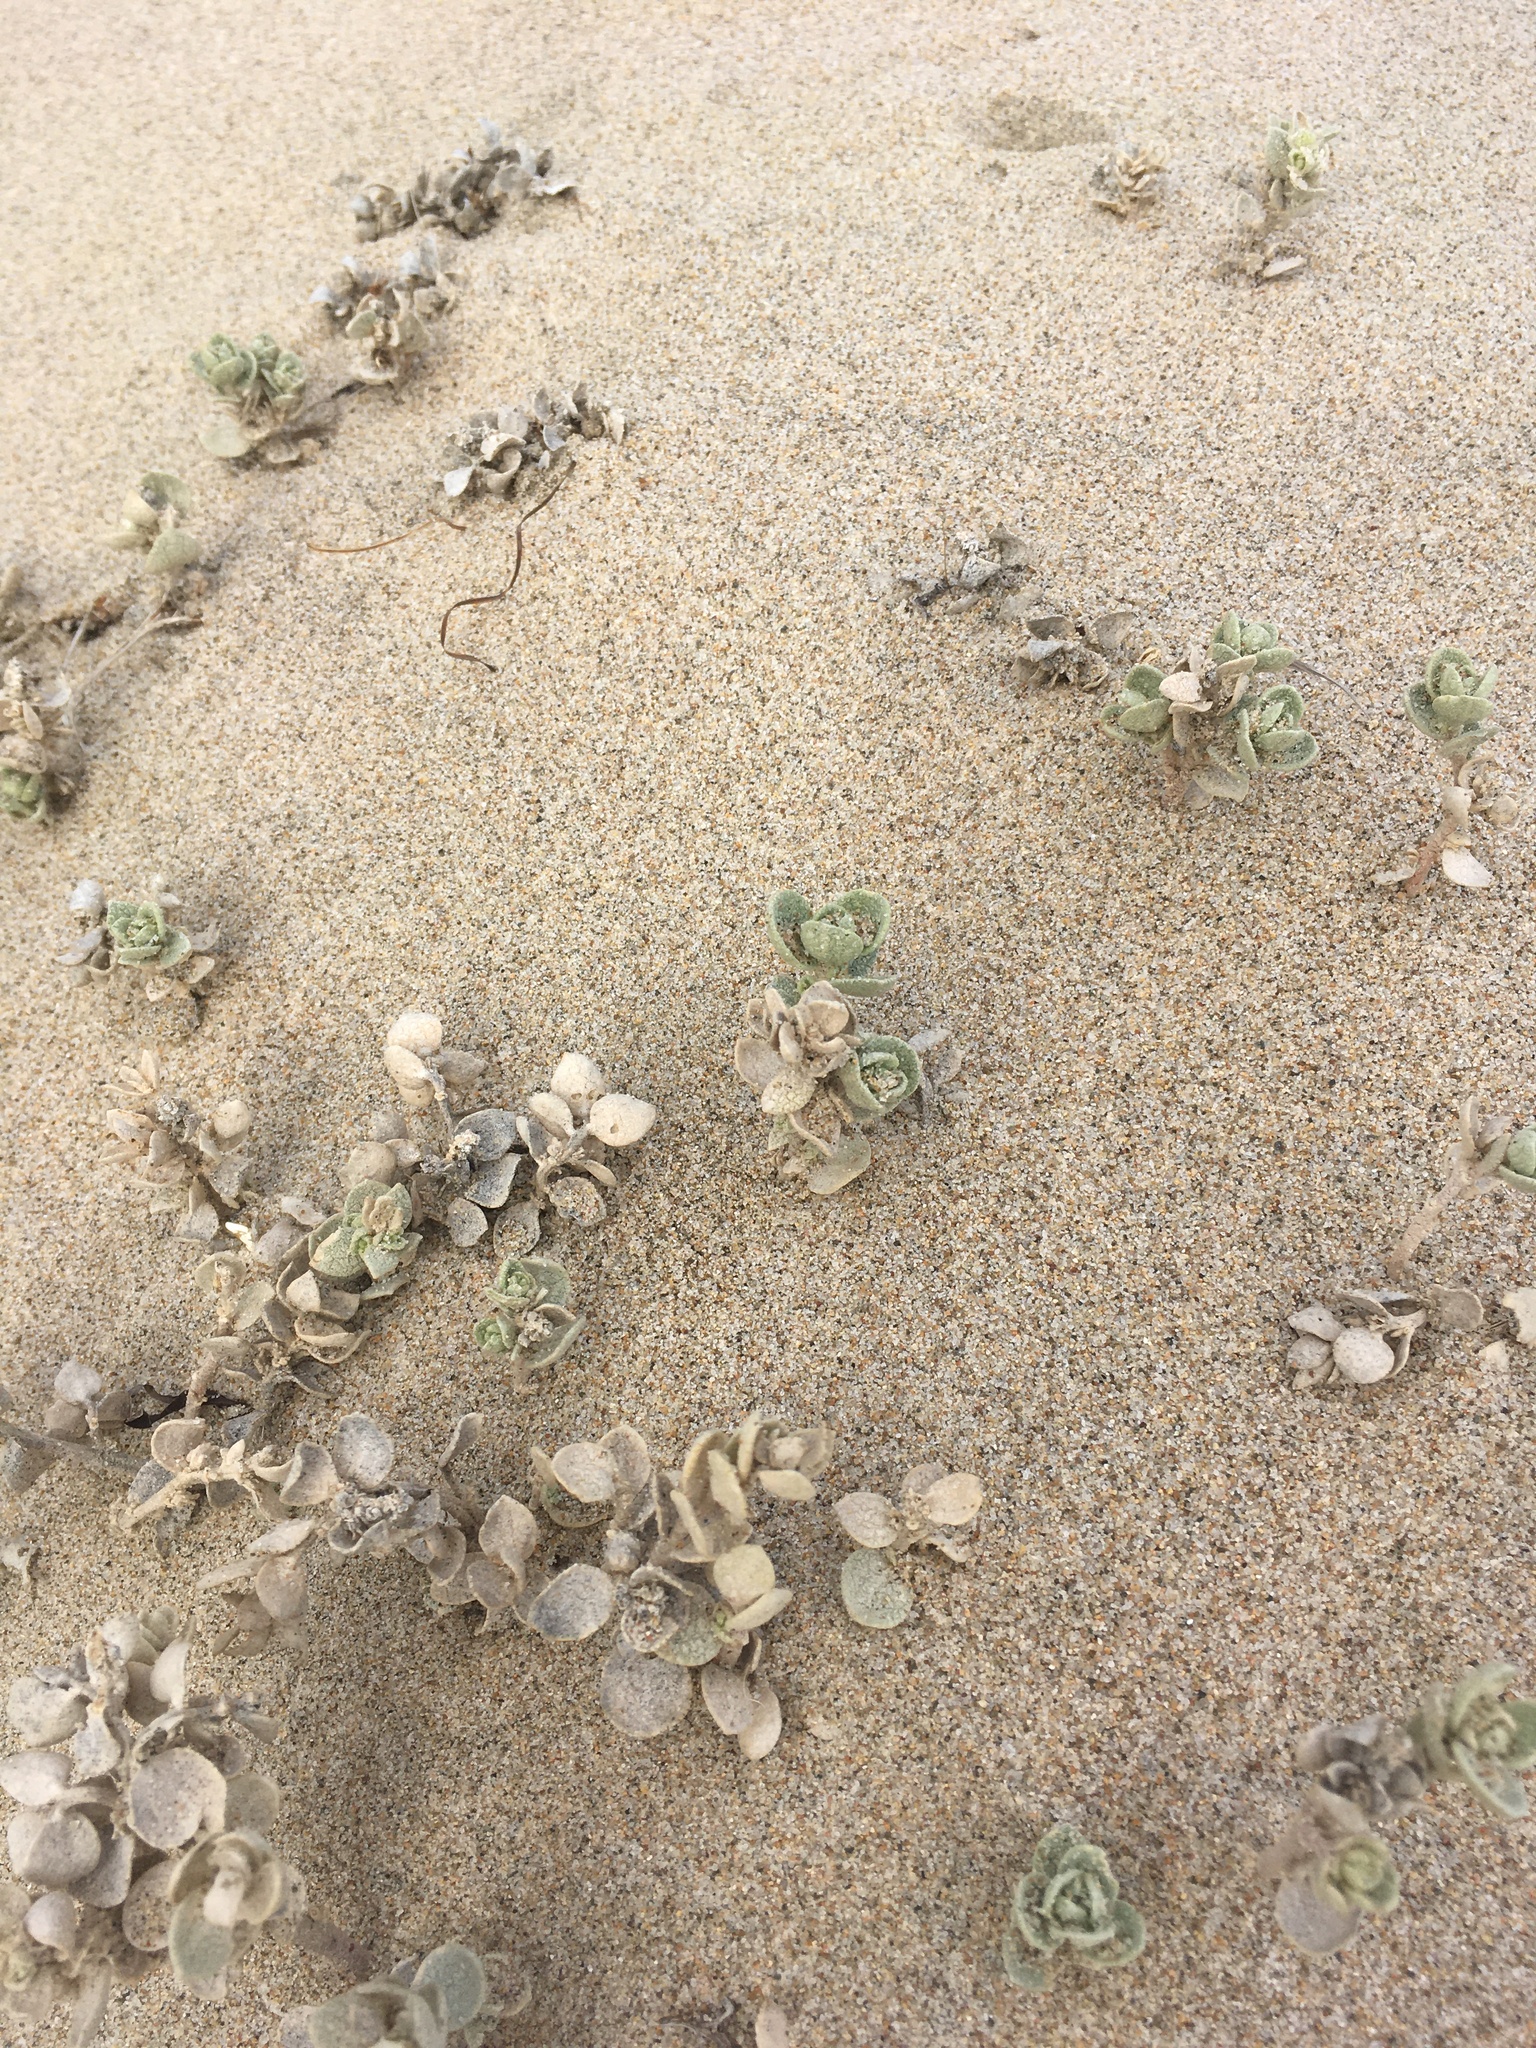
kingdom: Plantae
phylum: Tracheophyta
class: Magnoliopsida
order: Caryophyllales
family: Amaranthaceae
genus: Atriplex
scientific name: Atriplex leucophylla
